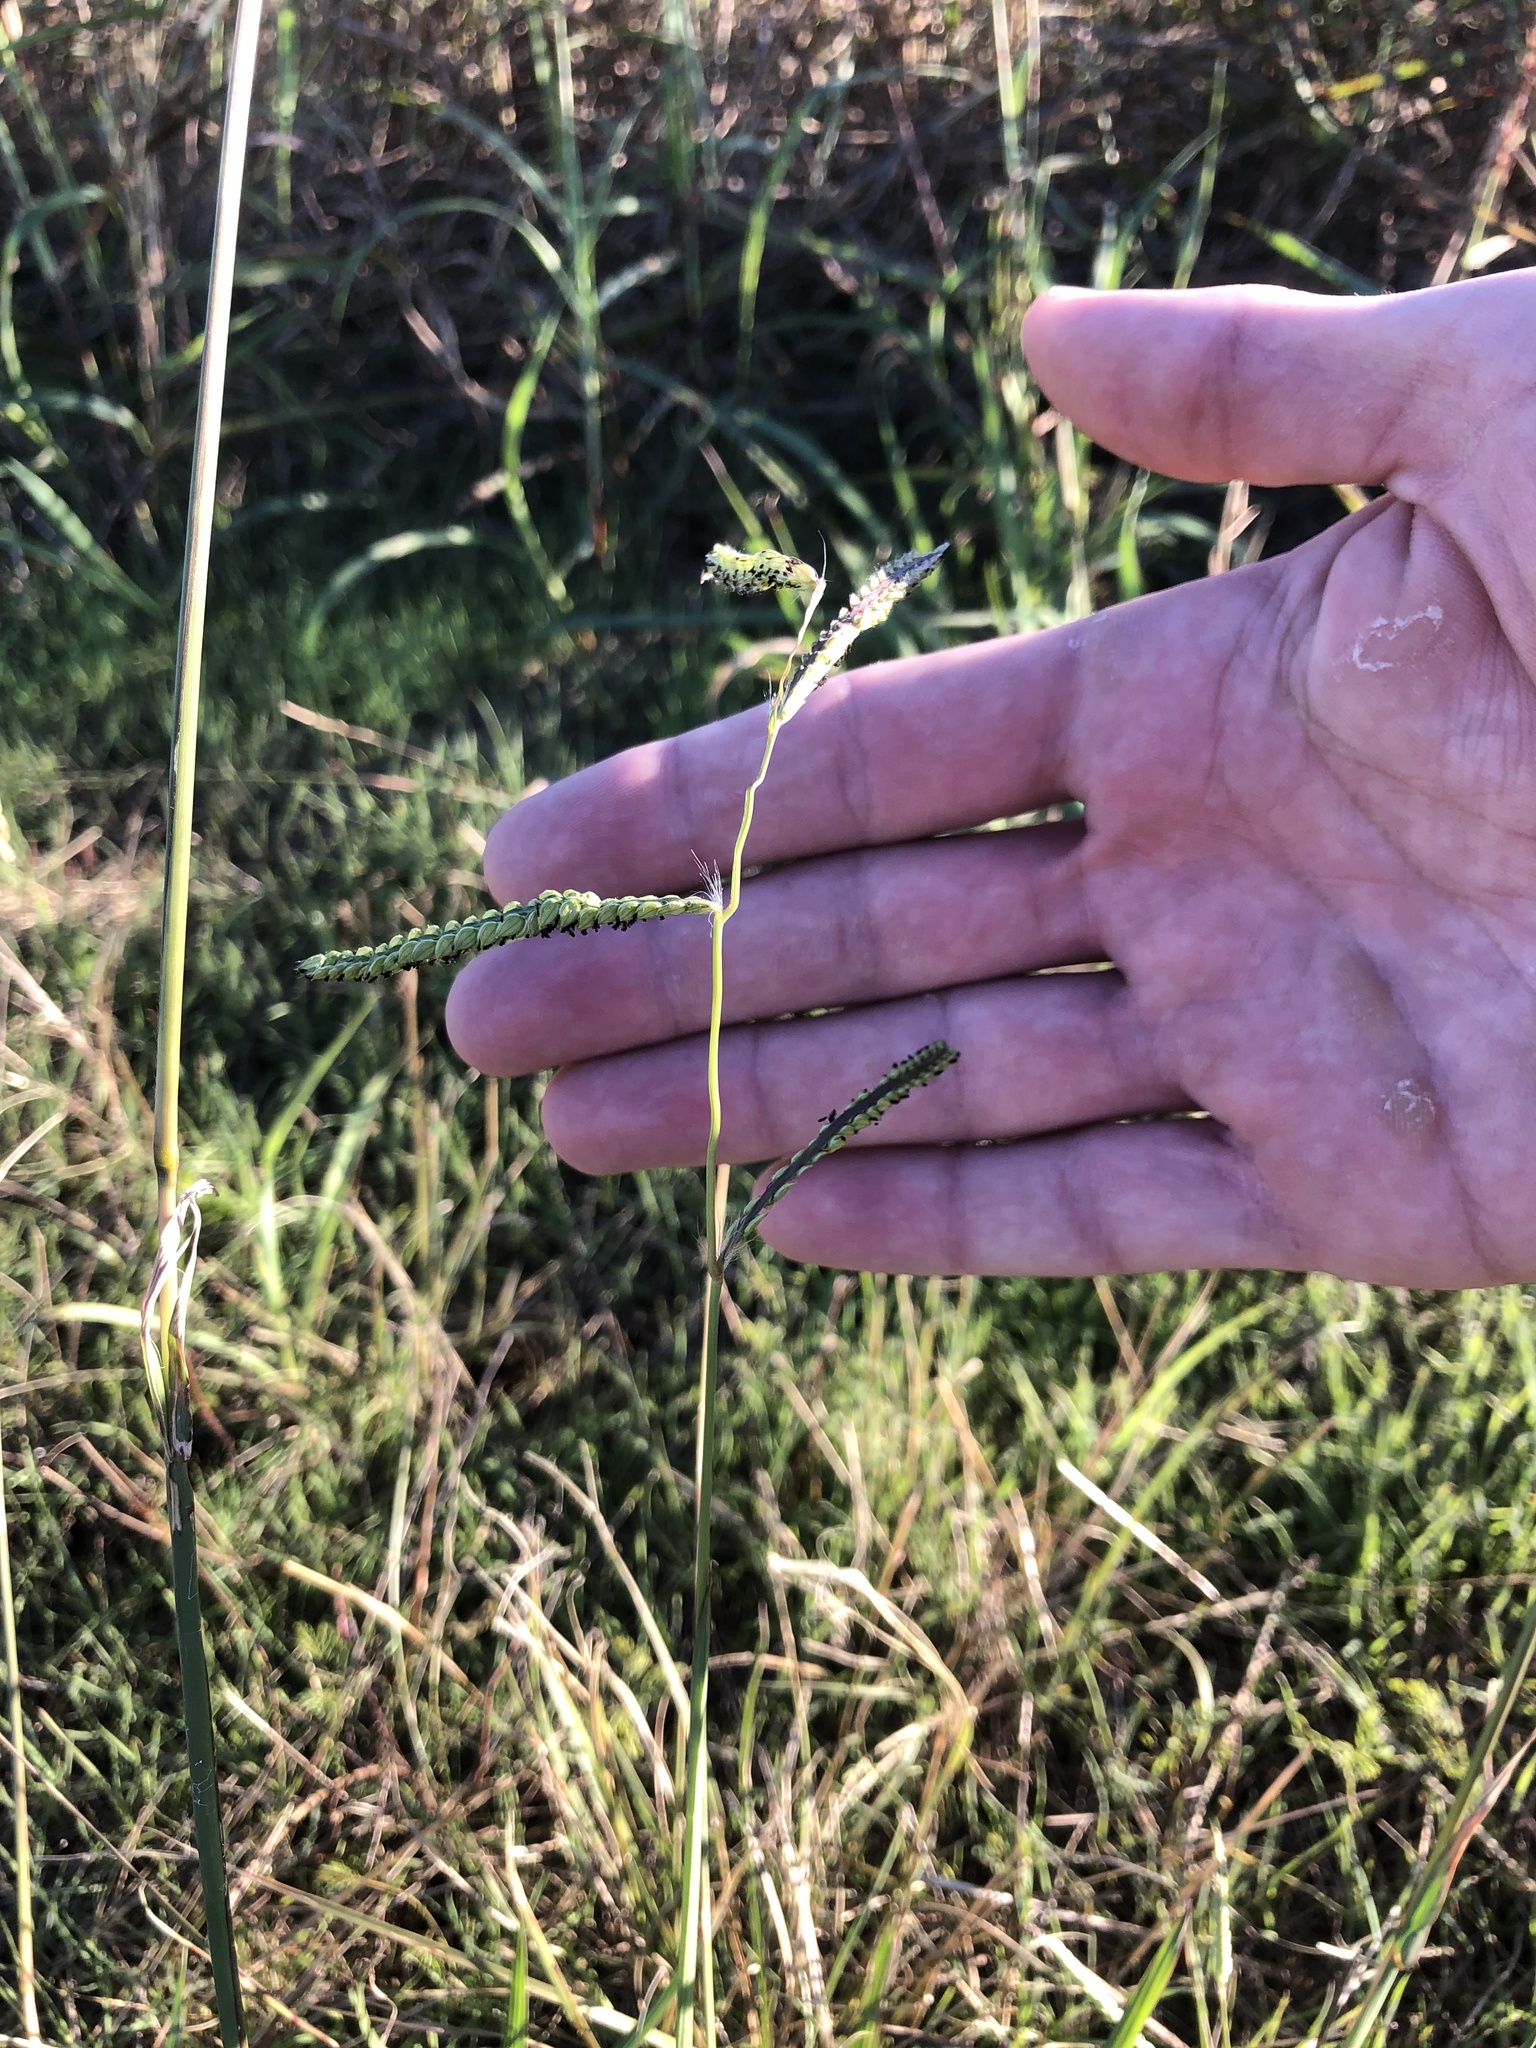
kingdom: Plantae
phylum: Tracheophyta
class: Liliopsida
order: Poales
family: Poaceae
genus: Paspalum
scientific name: Paspalum dilatatum
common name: Dallisgrass
